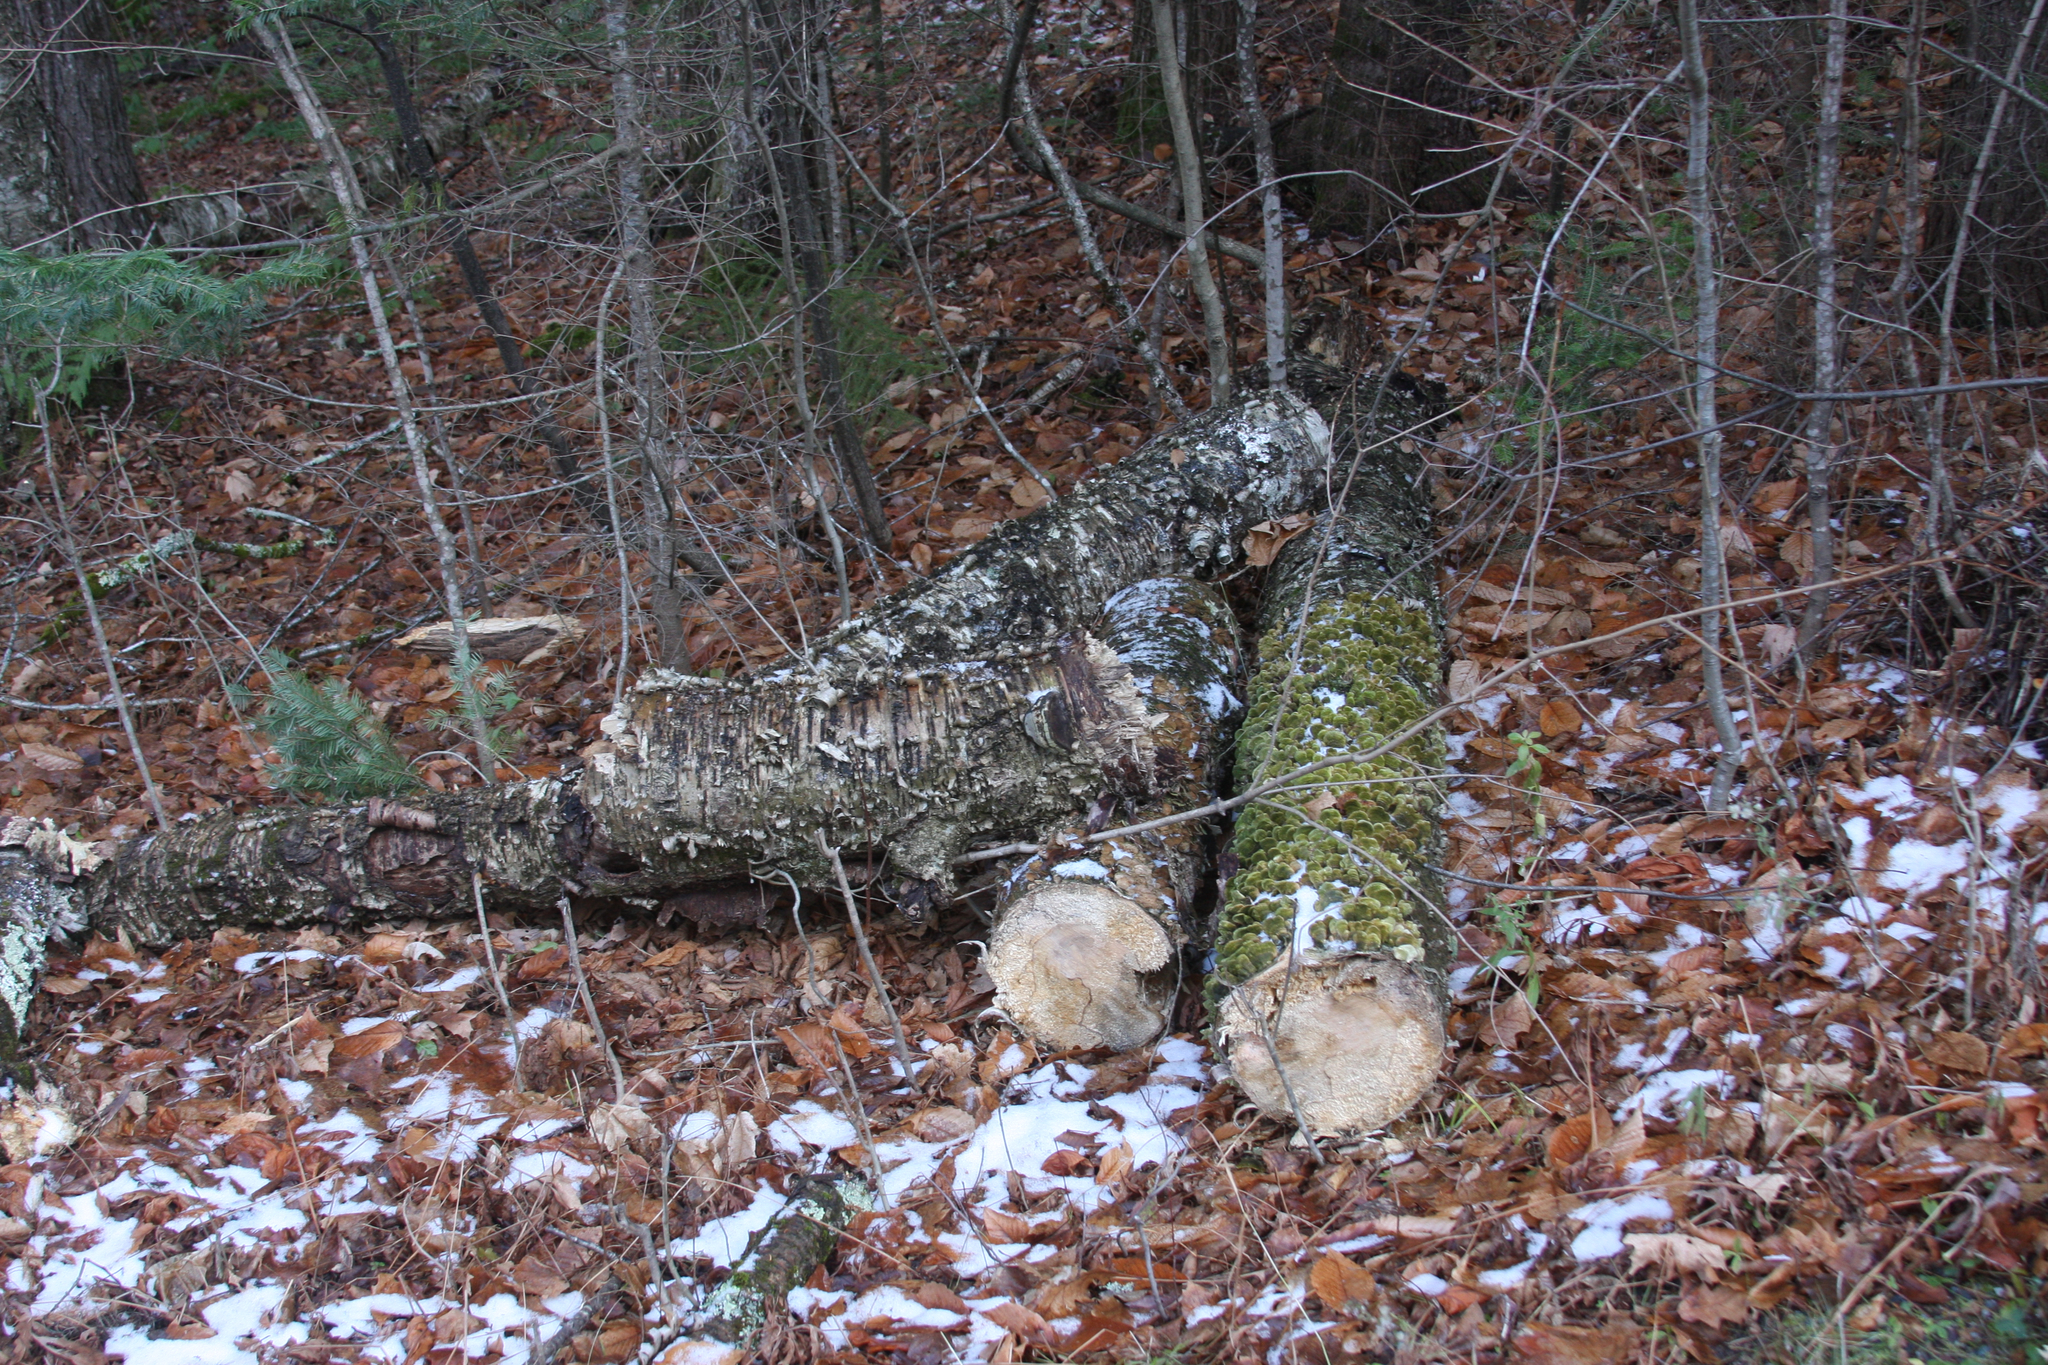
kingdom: Plantae
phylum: Tracheophyta
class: Magnoliopsida
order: Fagales
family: Betulaceae
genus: Betula
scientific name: Betula alleghaniensis
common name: Yellow birch
